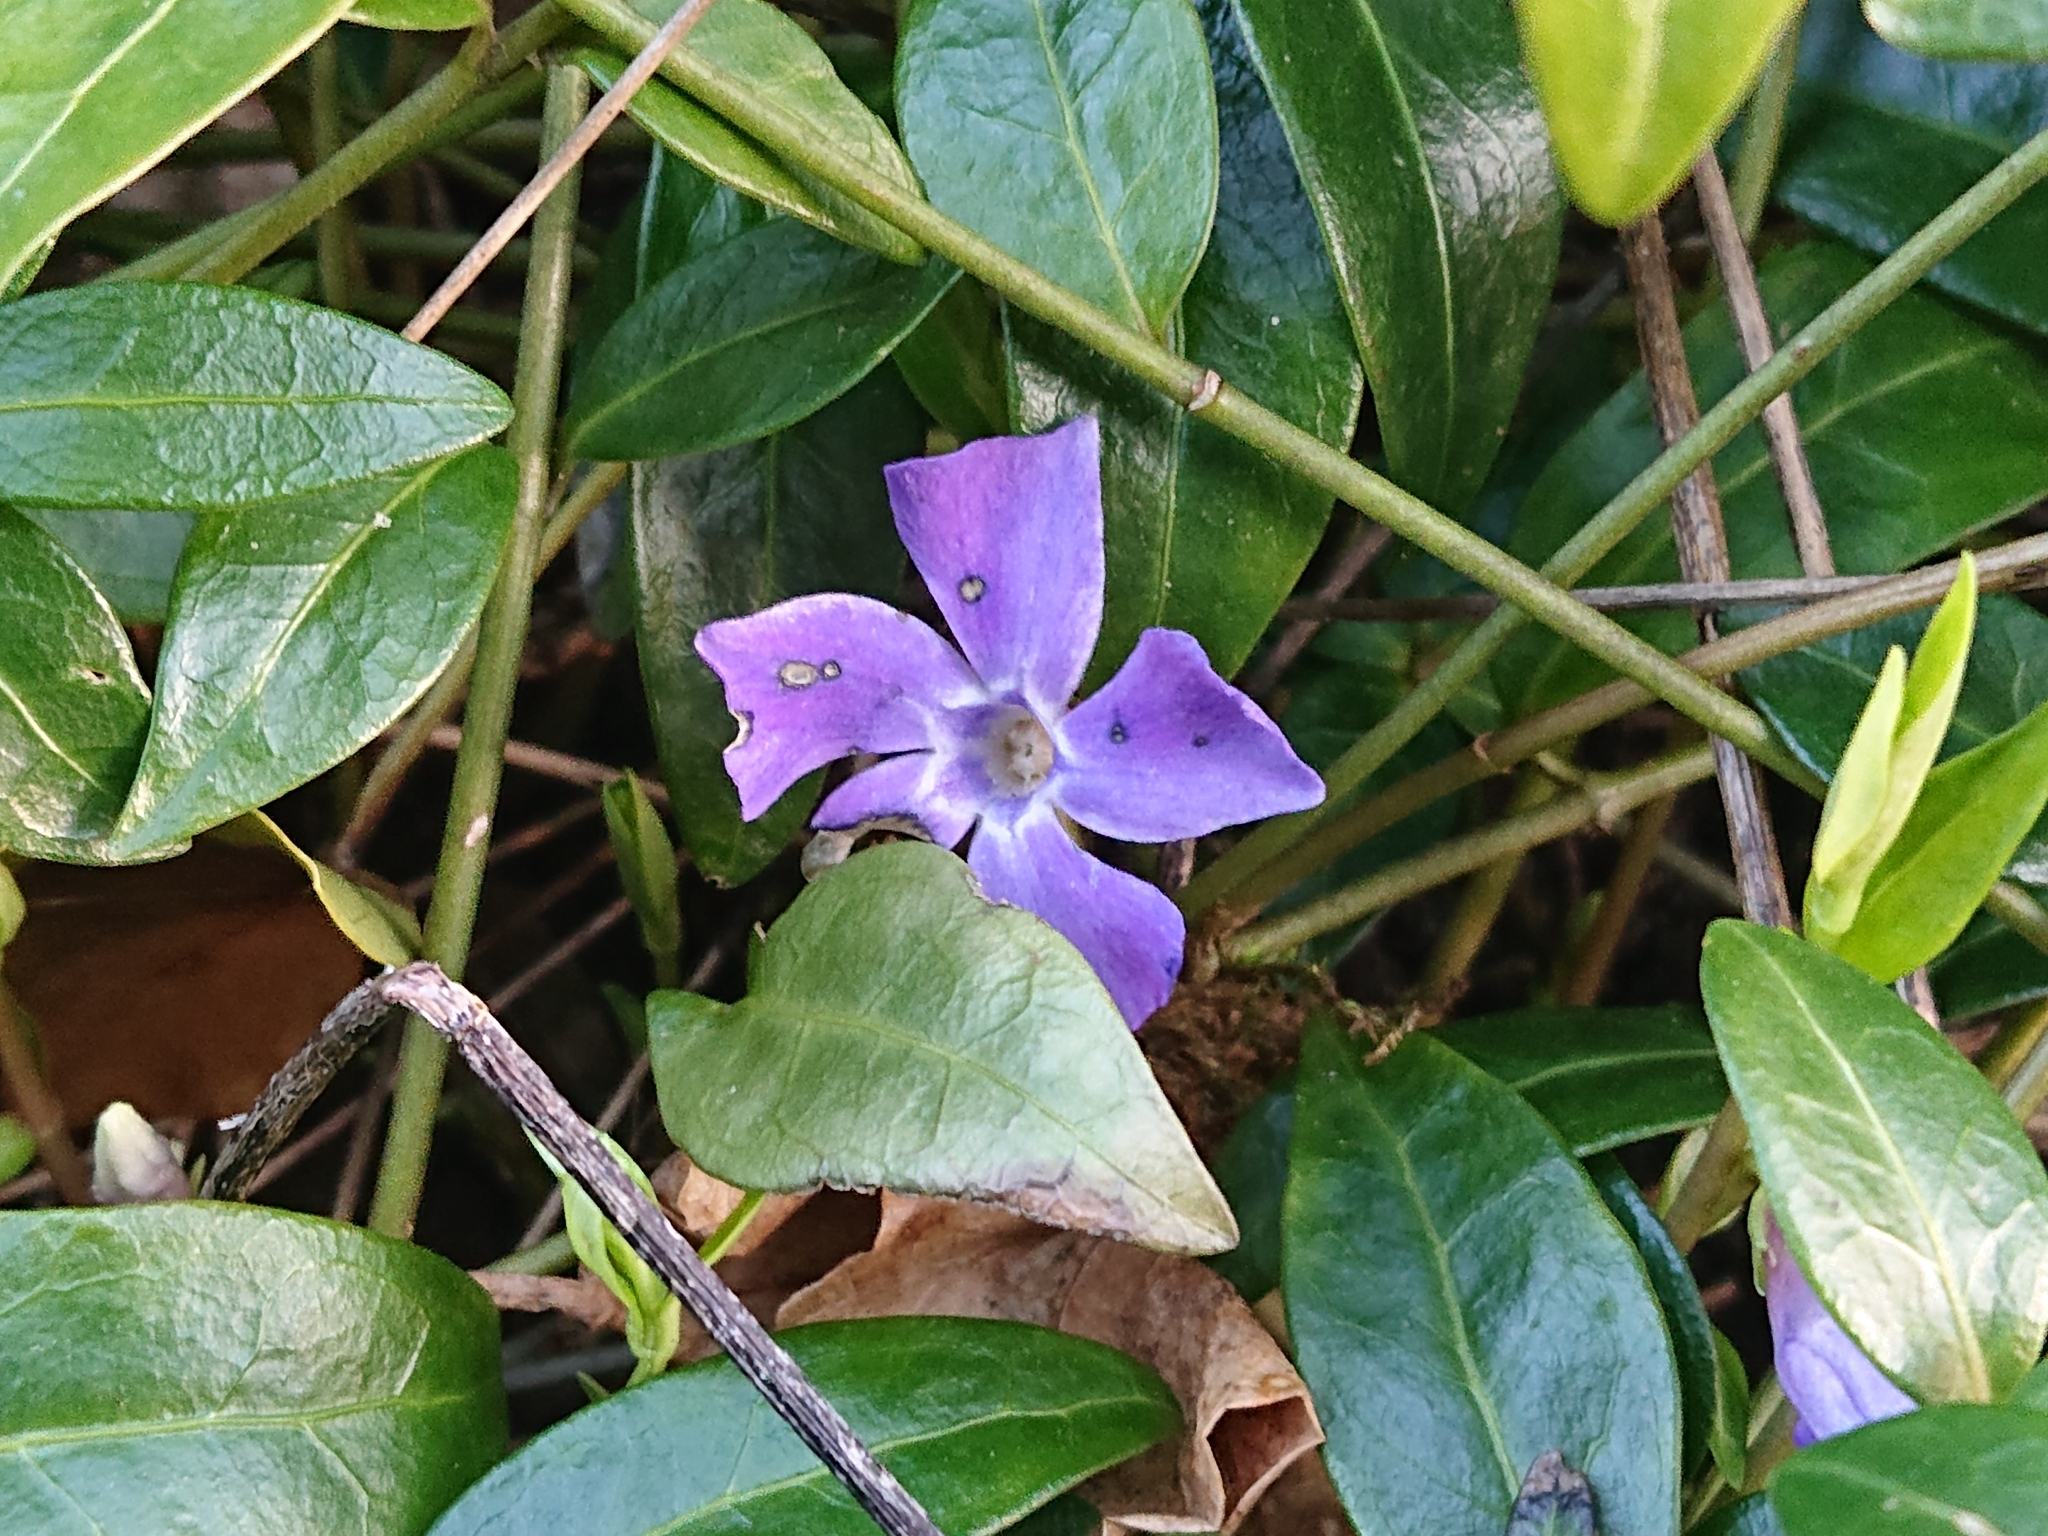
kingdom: Plantae
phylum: Tracheophyta
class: Magnoliopsida
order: Gentianales
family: Apocynaceae
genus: Vinca
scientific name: Vinca minor
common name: Lesser periwinkle
